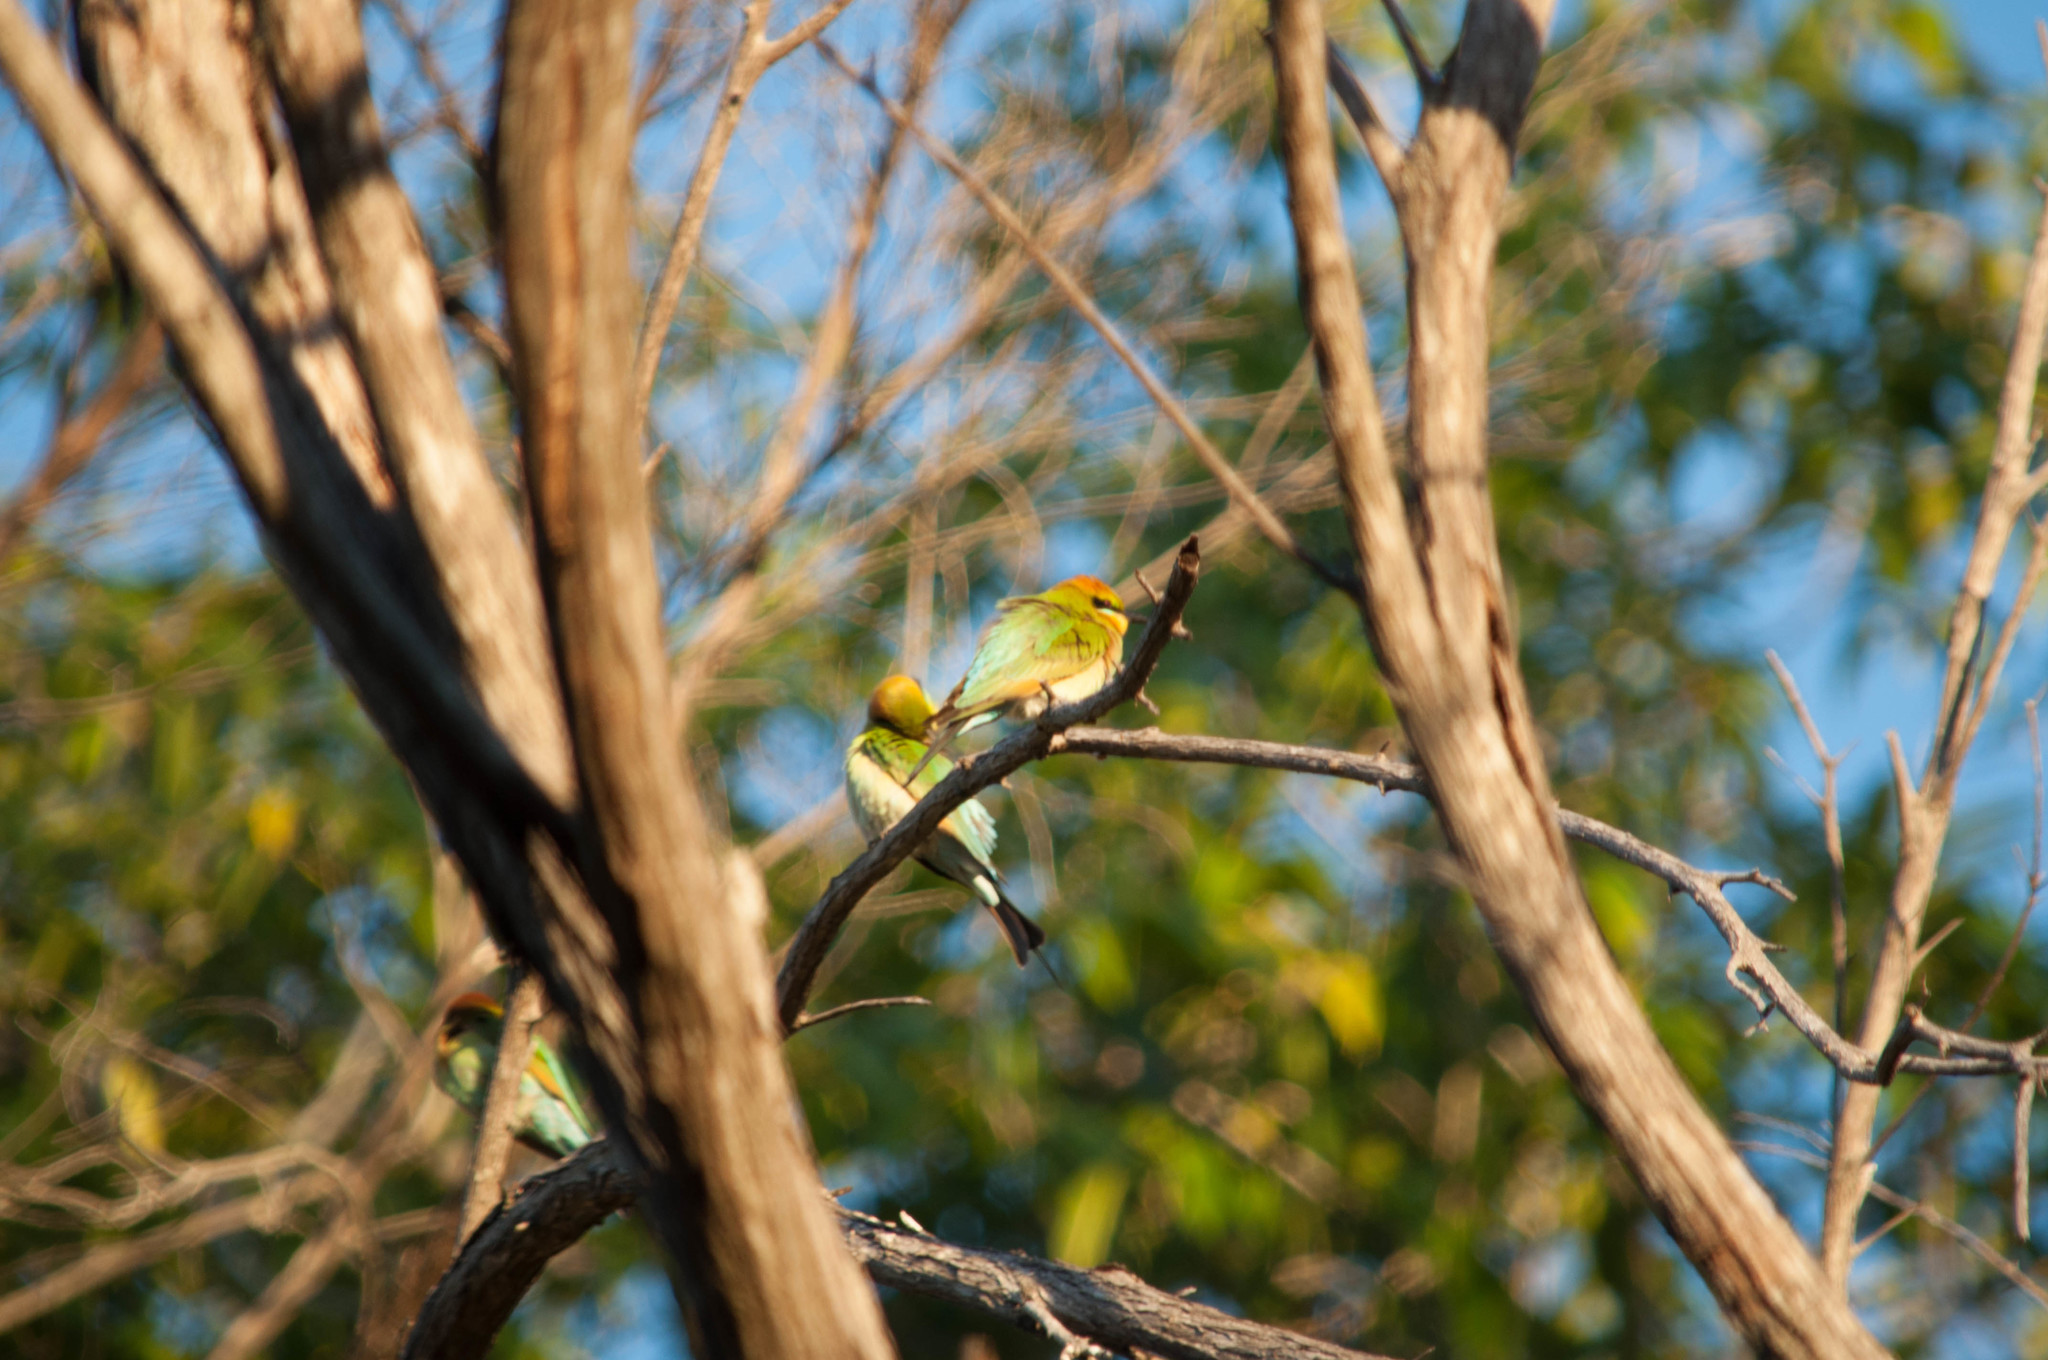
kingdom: Animalia
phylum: Chordata
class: Aves
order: Coraciiformes
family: Meropidae
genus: Merops
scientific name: Merops ornatus
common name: Rainbow bee-eater
